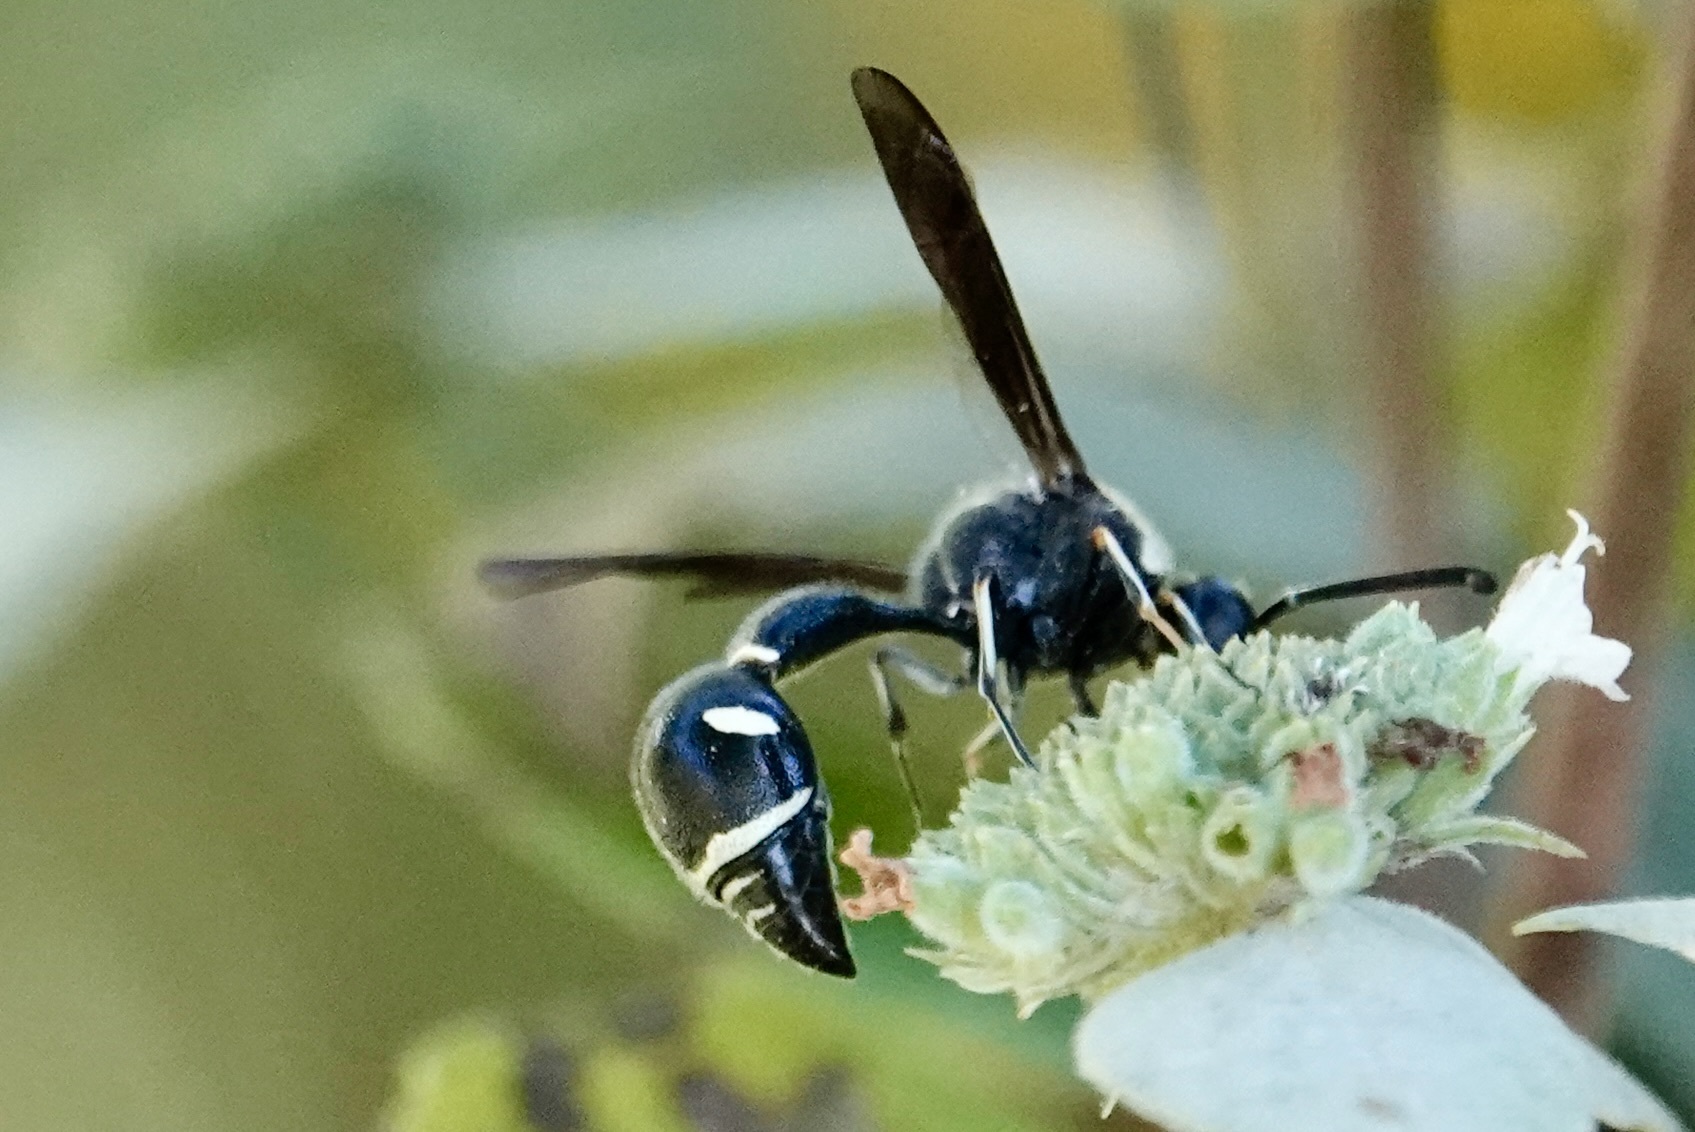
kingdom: Animalia
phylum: Arthropoda
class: Insecta
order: Hymenoptera
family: Vespidae
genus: Eumenes
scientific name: Eumenes fraternus
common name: Fraternal potter wasp
